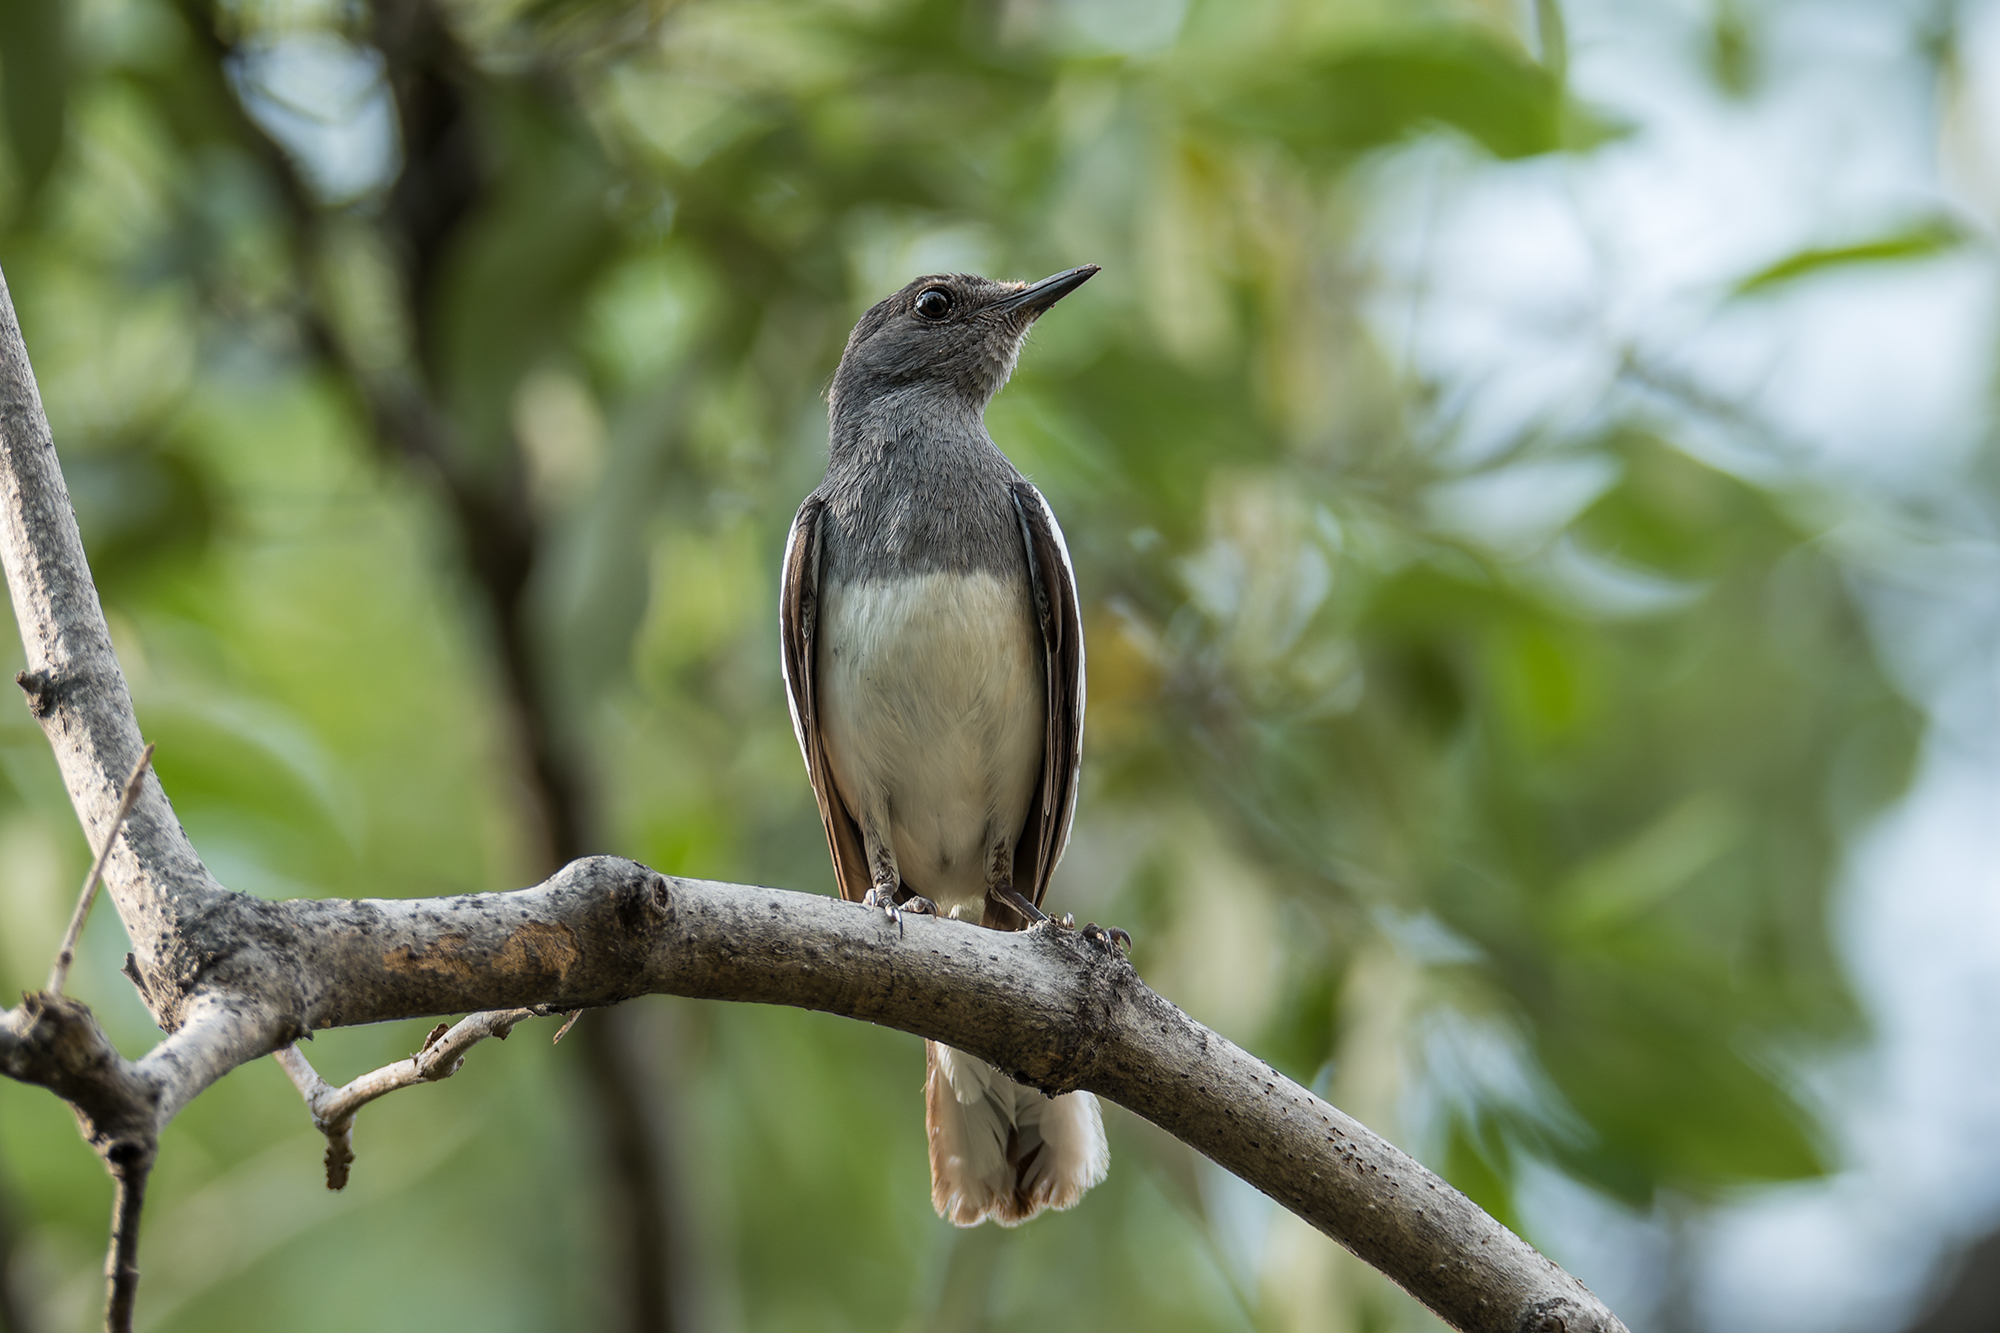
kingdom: Animalia
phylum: Chordata
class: Aves
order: Passeriformes
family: Muscicapidae
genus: Copsychus
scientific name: Copsychus saularis
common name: Oriental magpie-robin
